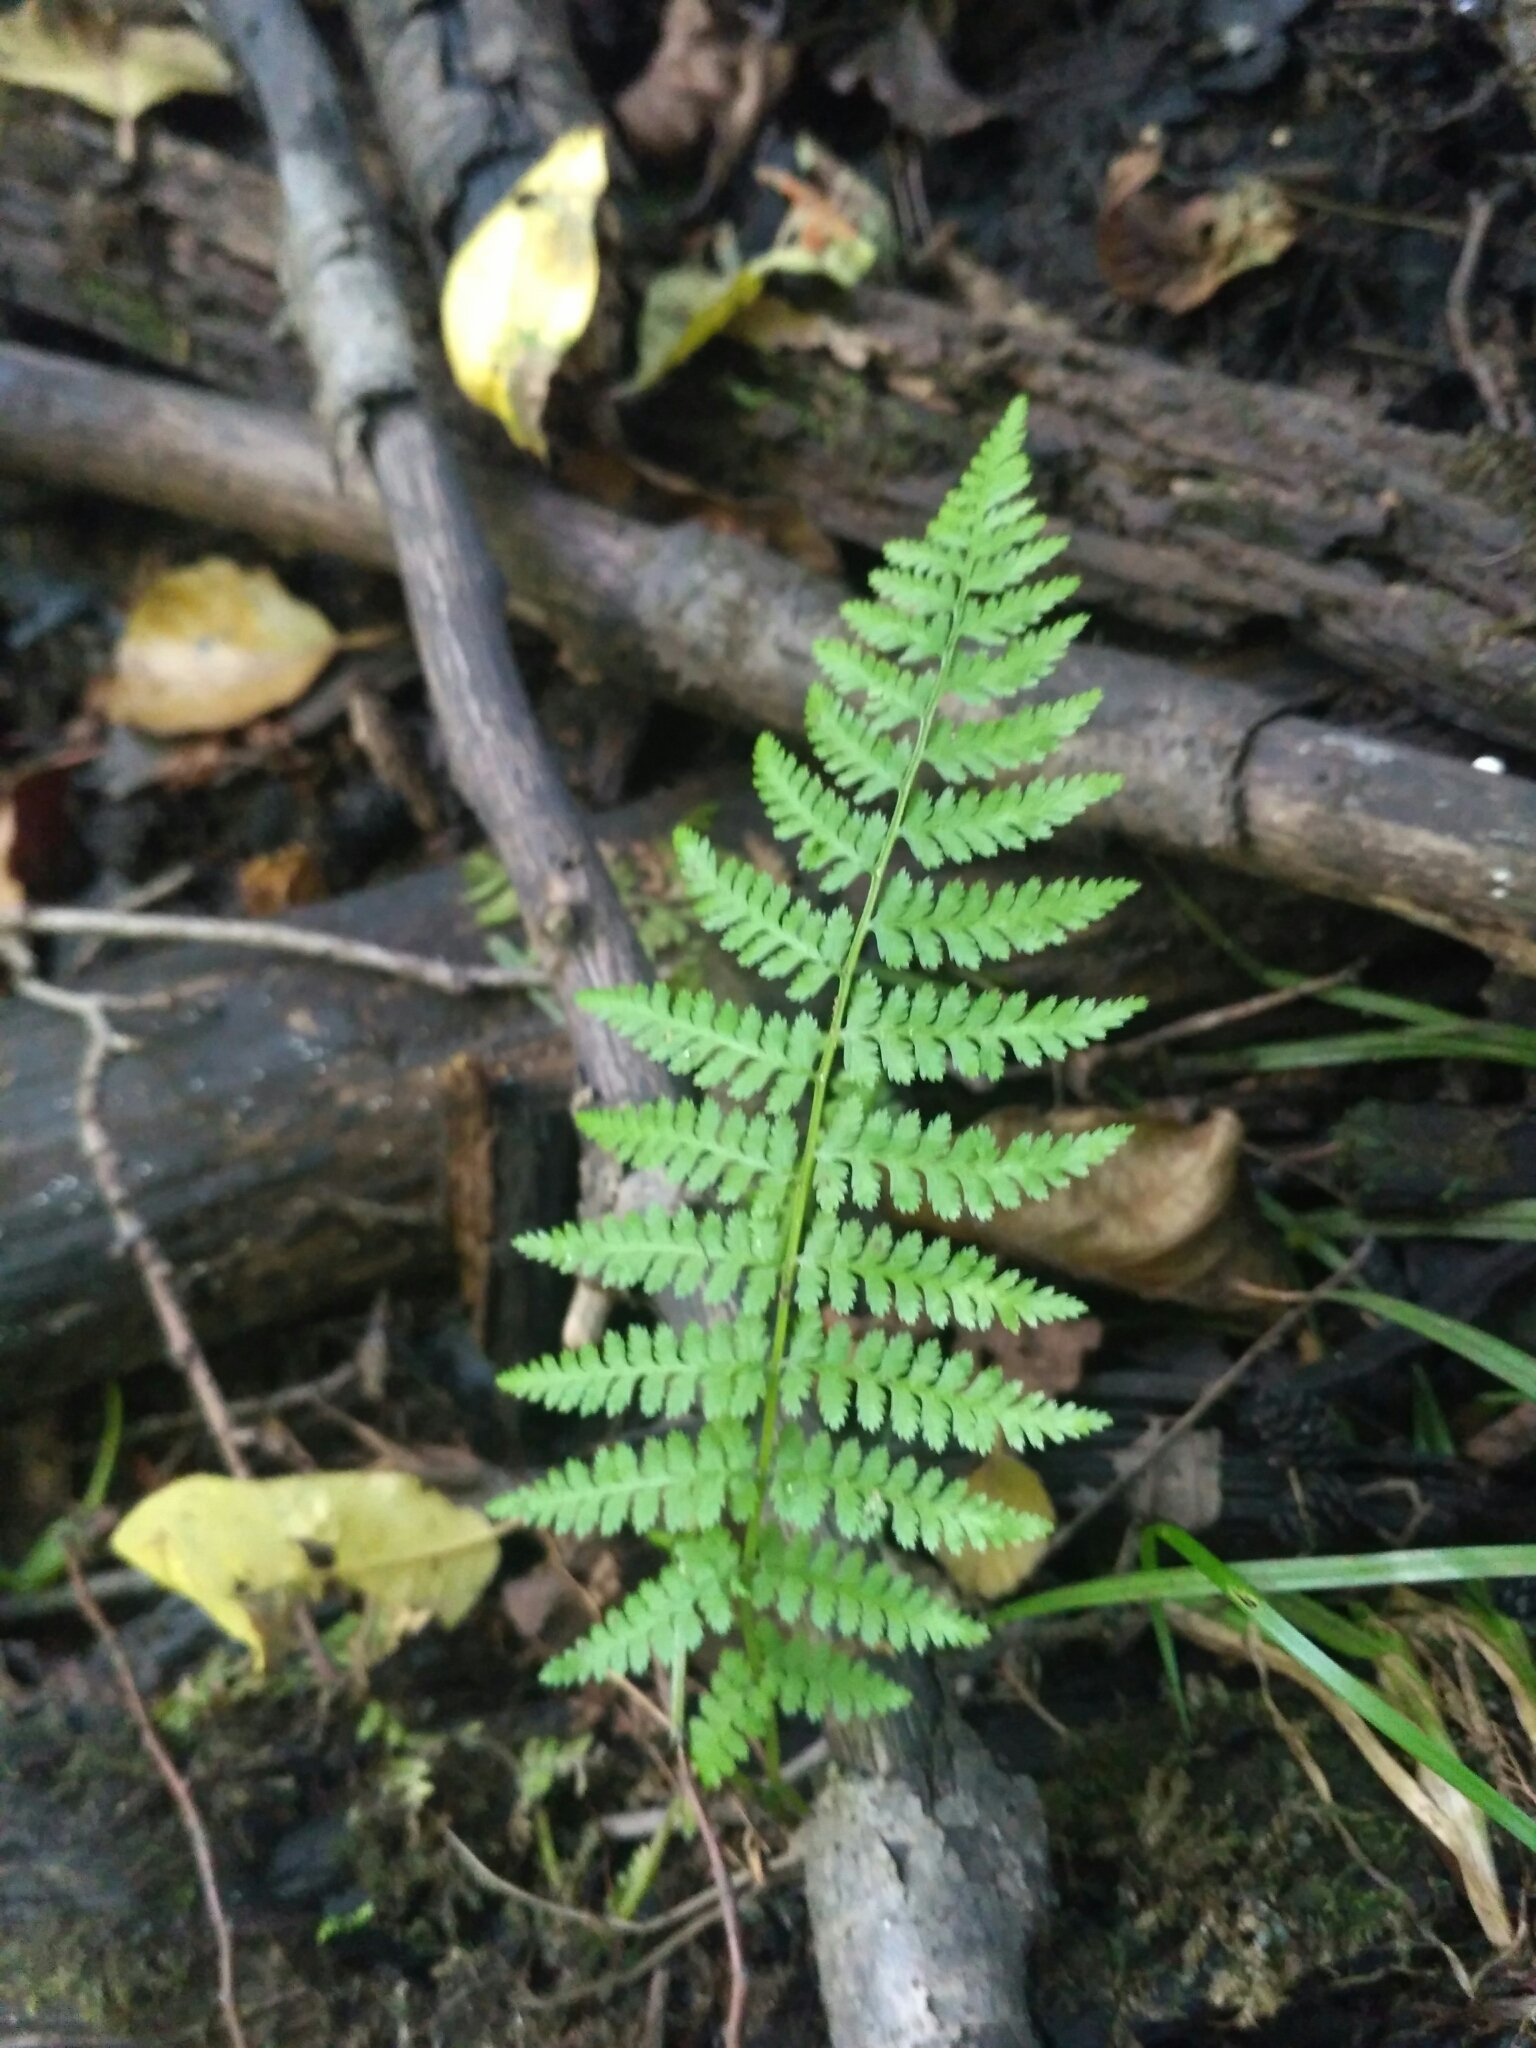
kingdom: Plantae
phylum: Tracheophyta
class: Polypodiopsida
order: Polypodiales
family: Athyriaceae
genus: Athyrium
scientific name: Athyrium filix-femina
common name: Lady fern
